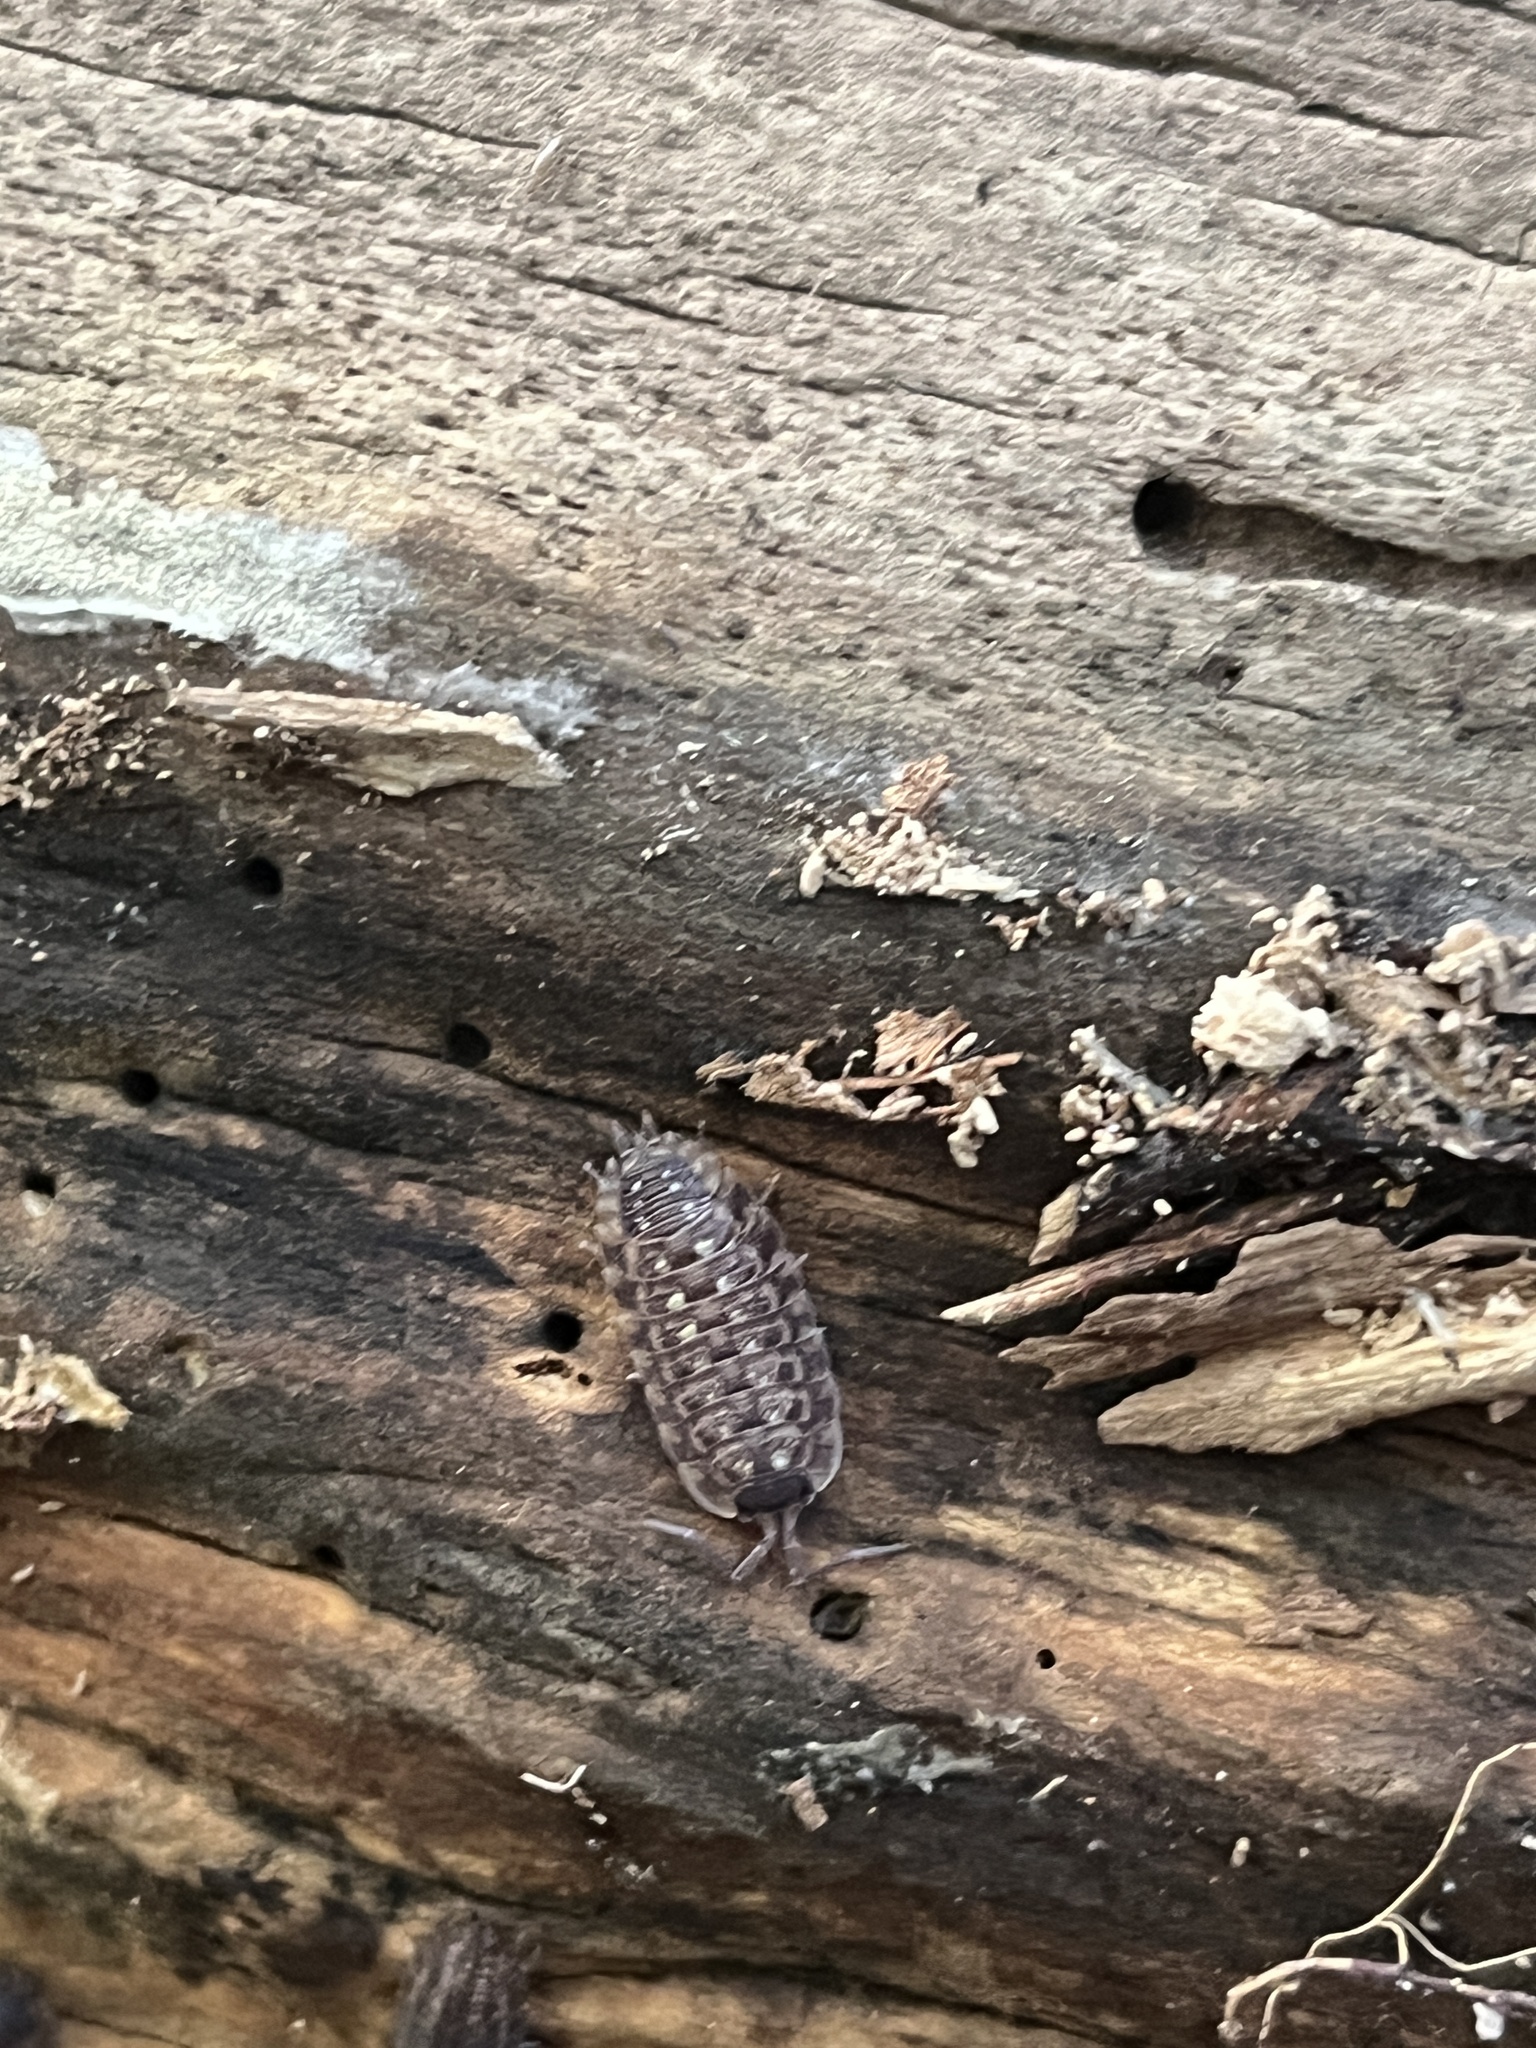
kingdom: Animalia
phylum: Arthropoda
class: Malacostraca
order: Isopoda
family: Porcellionidae
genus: Porcellio
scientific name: Porcellio spinicornis
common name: Painted woodlouse
